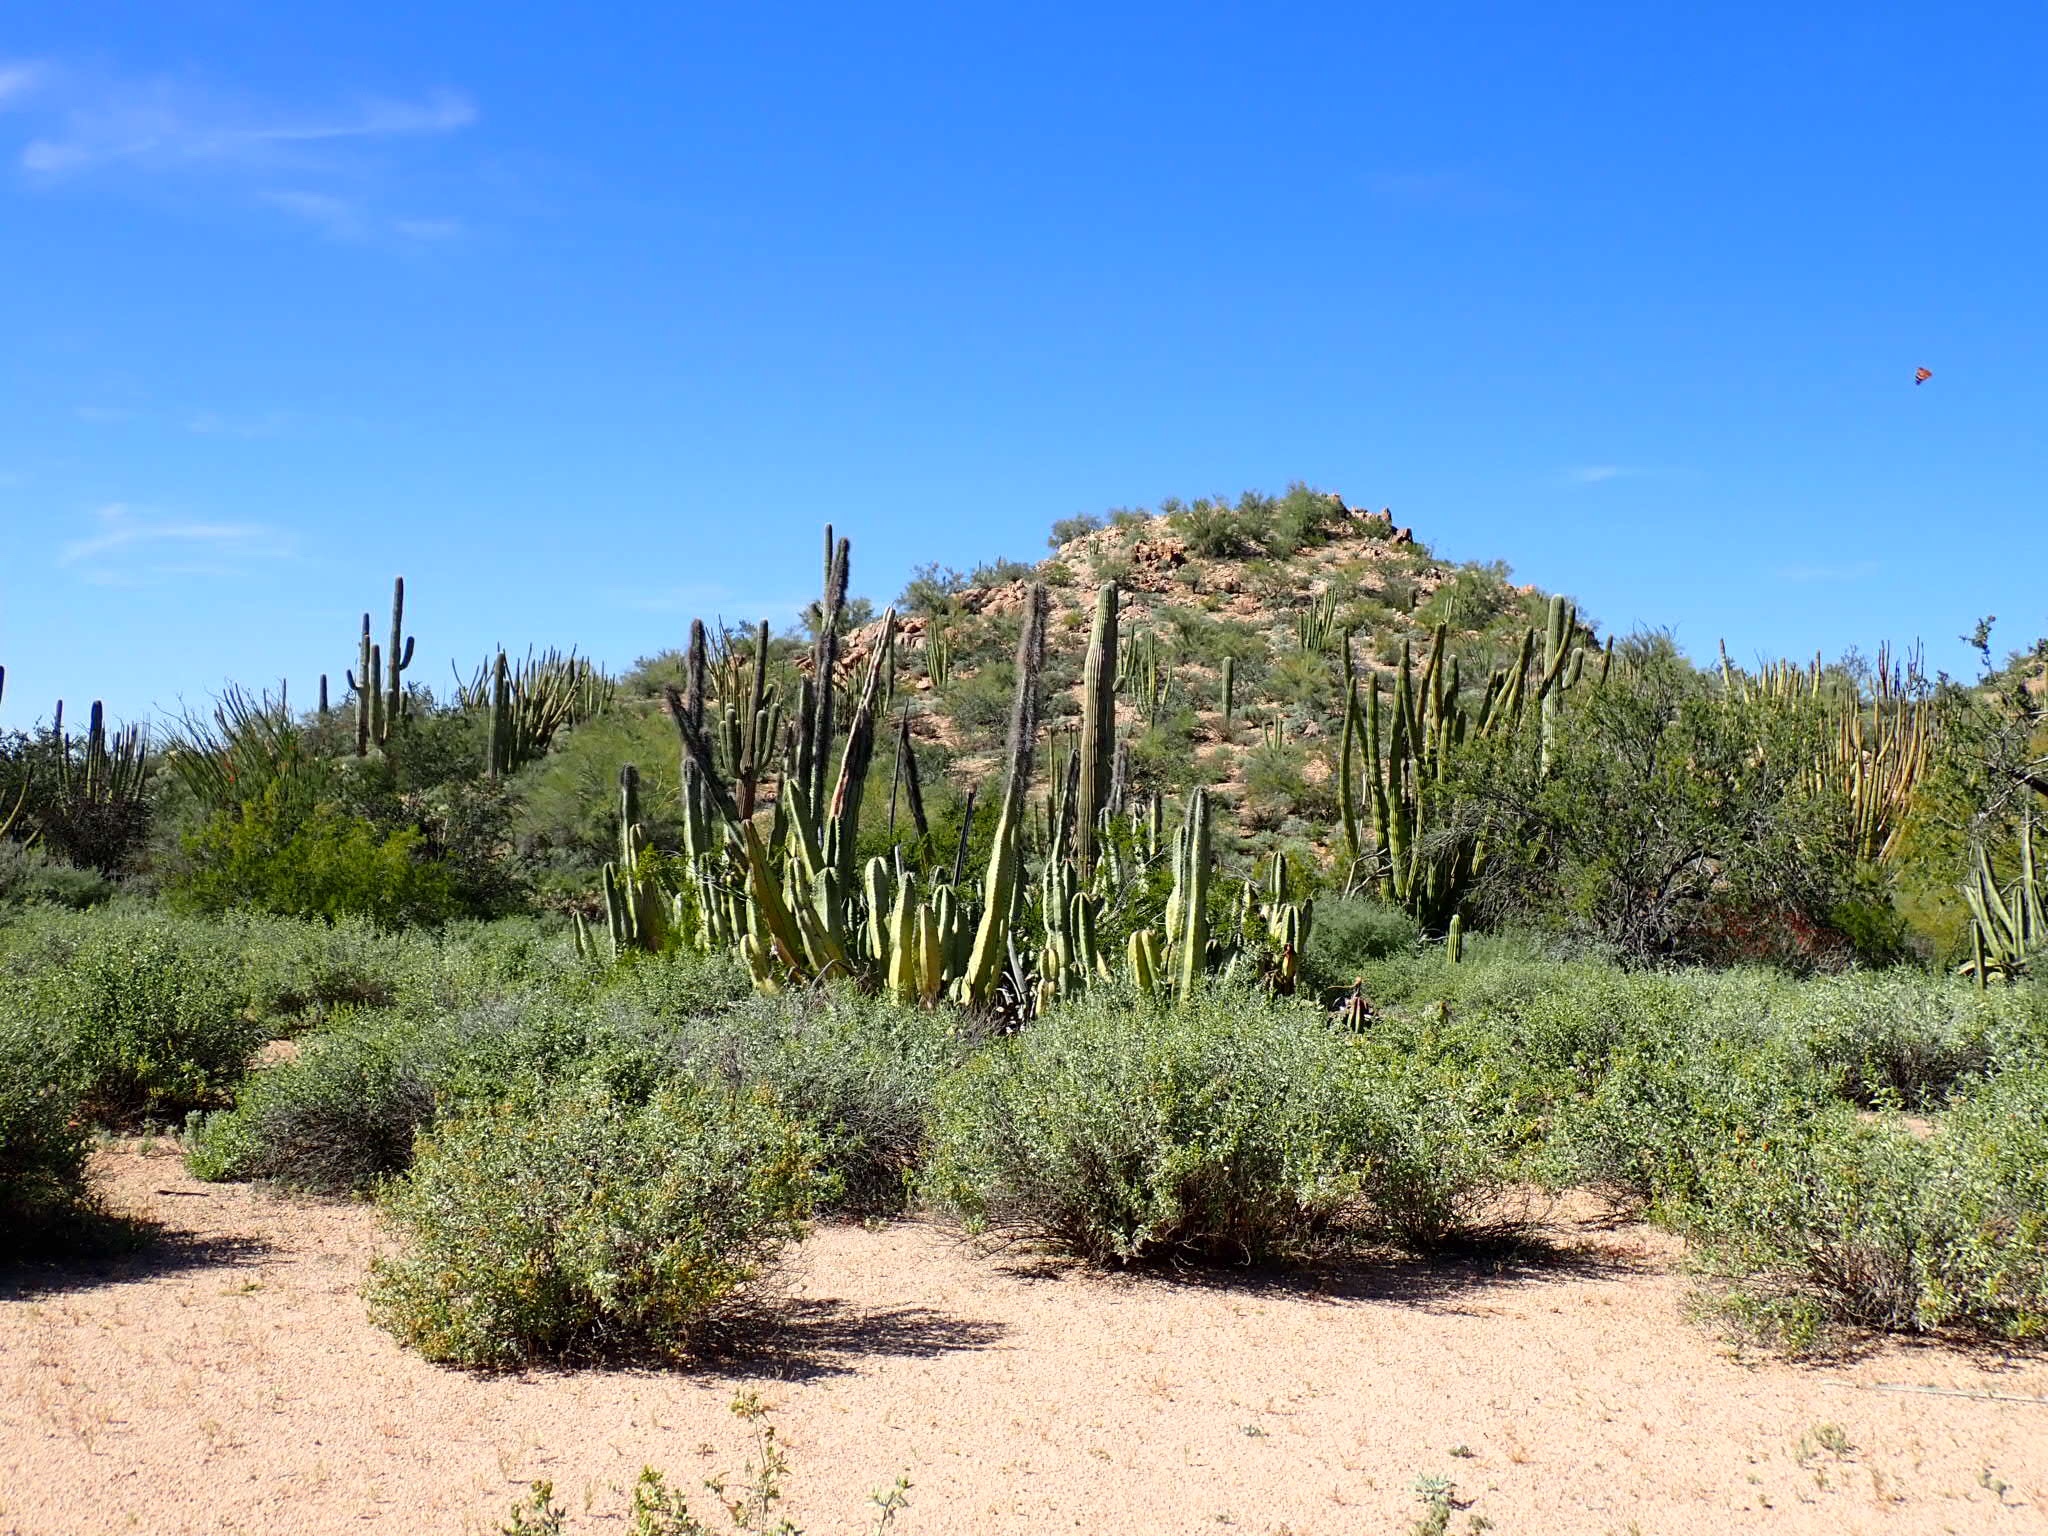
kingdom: Plantae
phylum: Tracheophyta
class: Magnoliopsida
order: Caryophyllales
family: Cactaceae
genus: Pachycereus
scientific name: Pachycereus schottii
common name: Senita cactus
